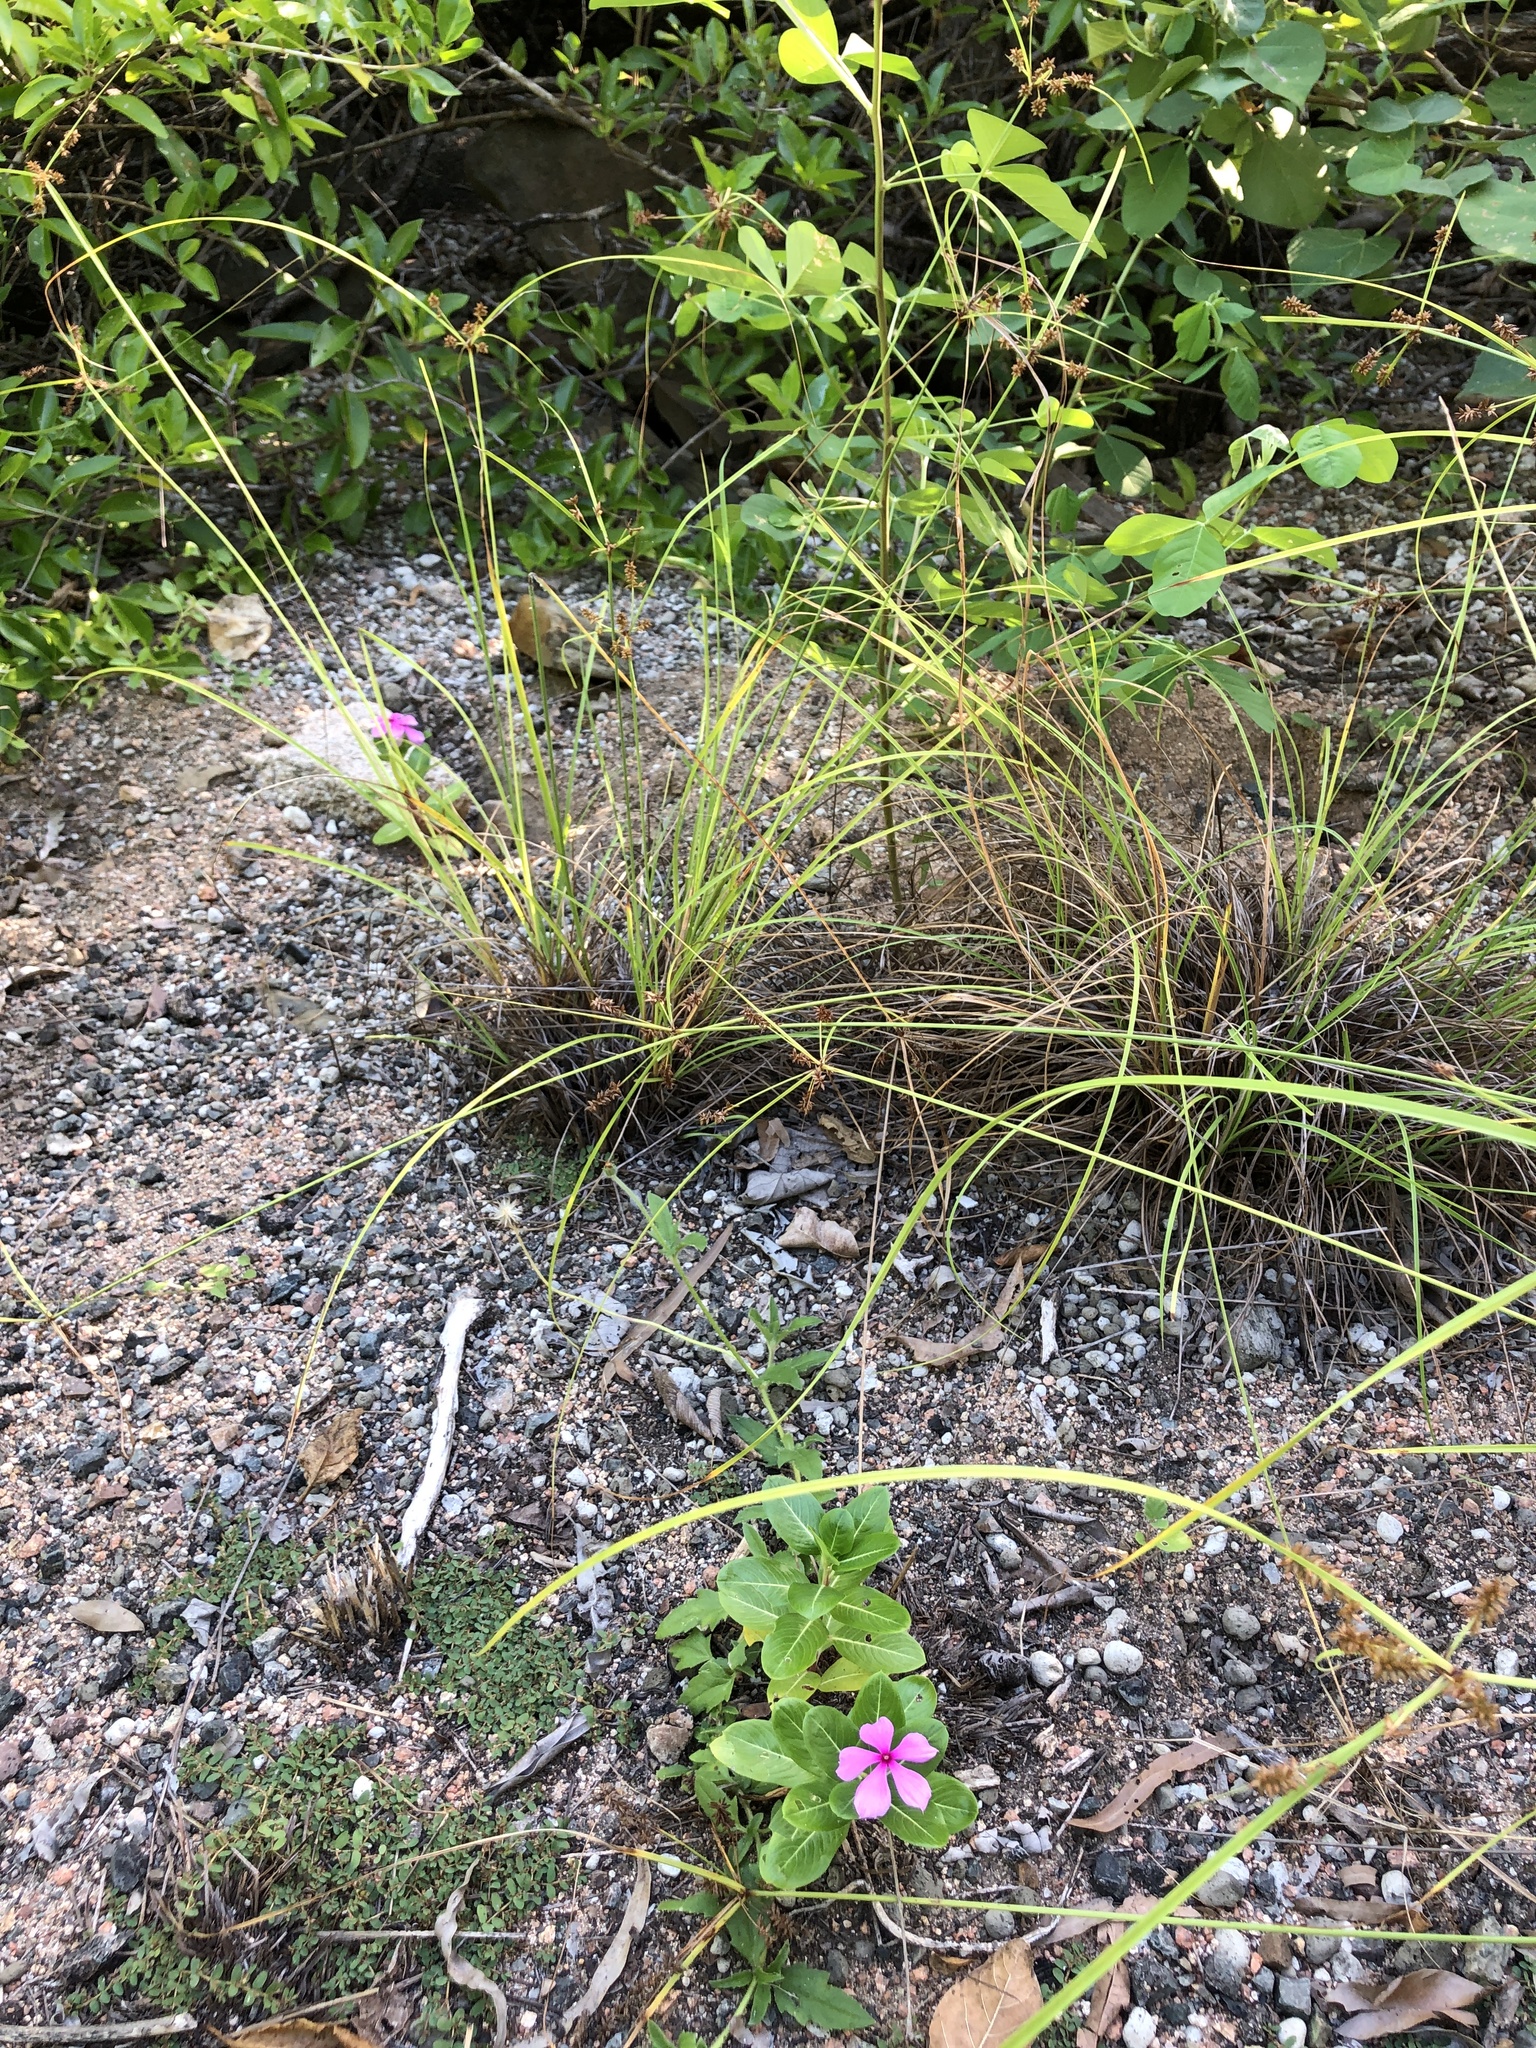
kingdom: Plantae
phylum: Tracheophyta
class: Magnoliopsida
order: Gentianales
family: Apocynaceae
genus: Catharanthus
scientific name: Catharanthus roseus
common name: Madagascar periwinkle
